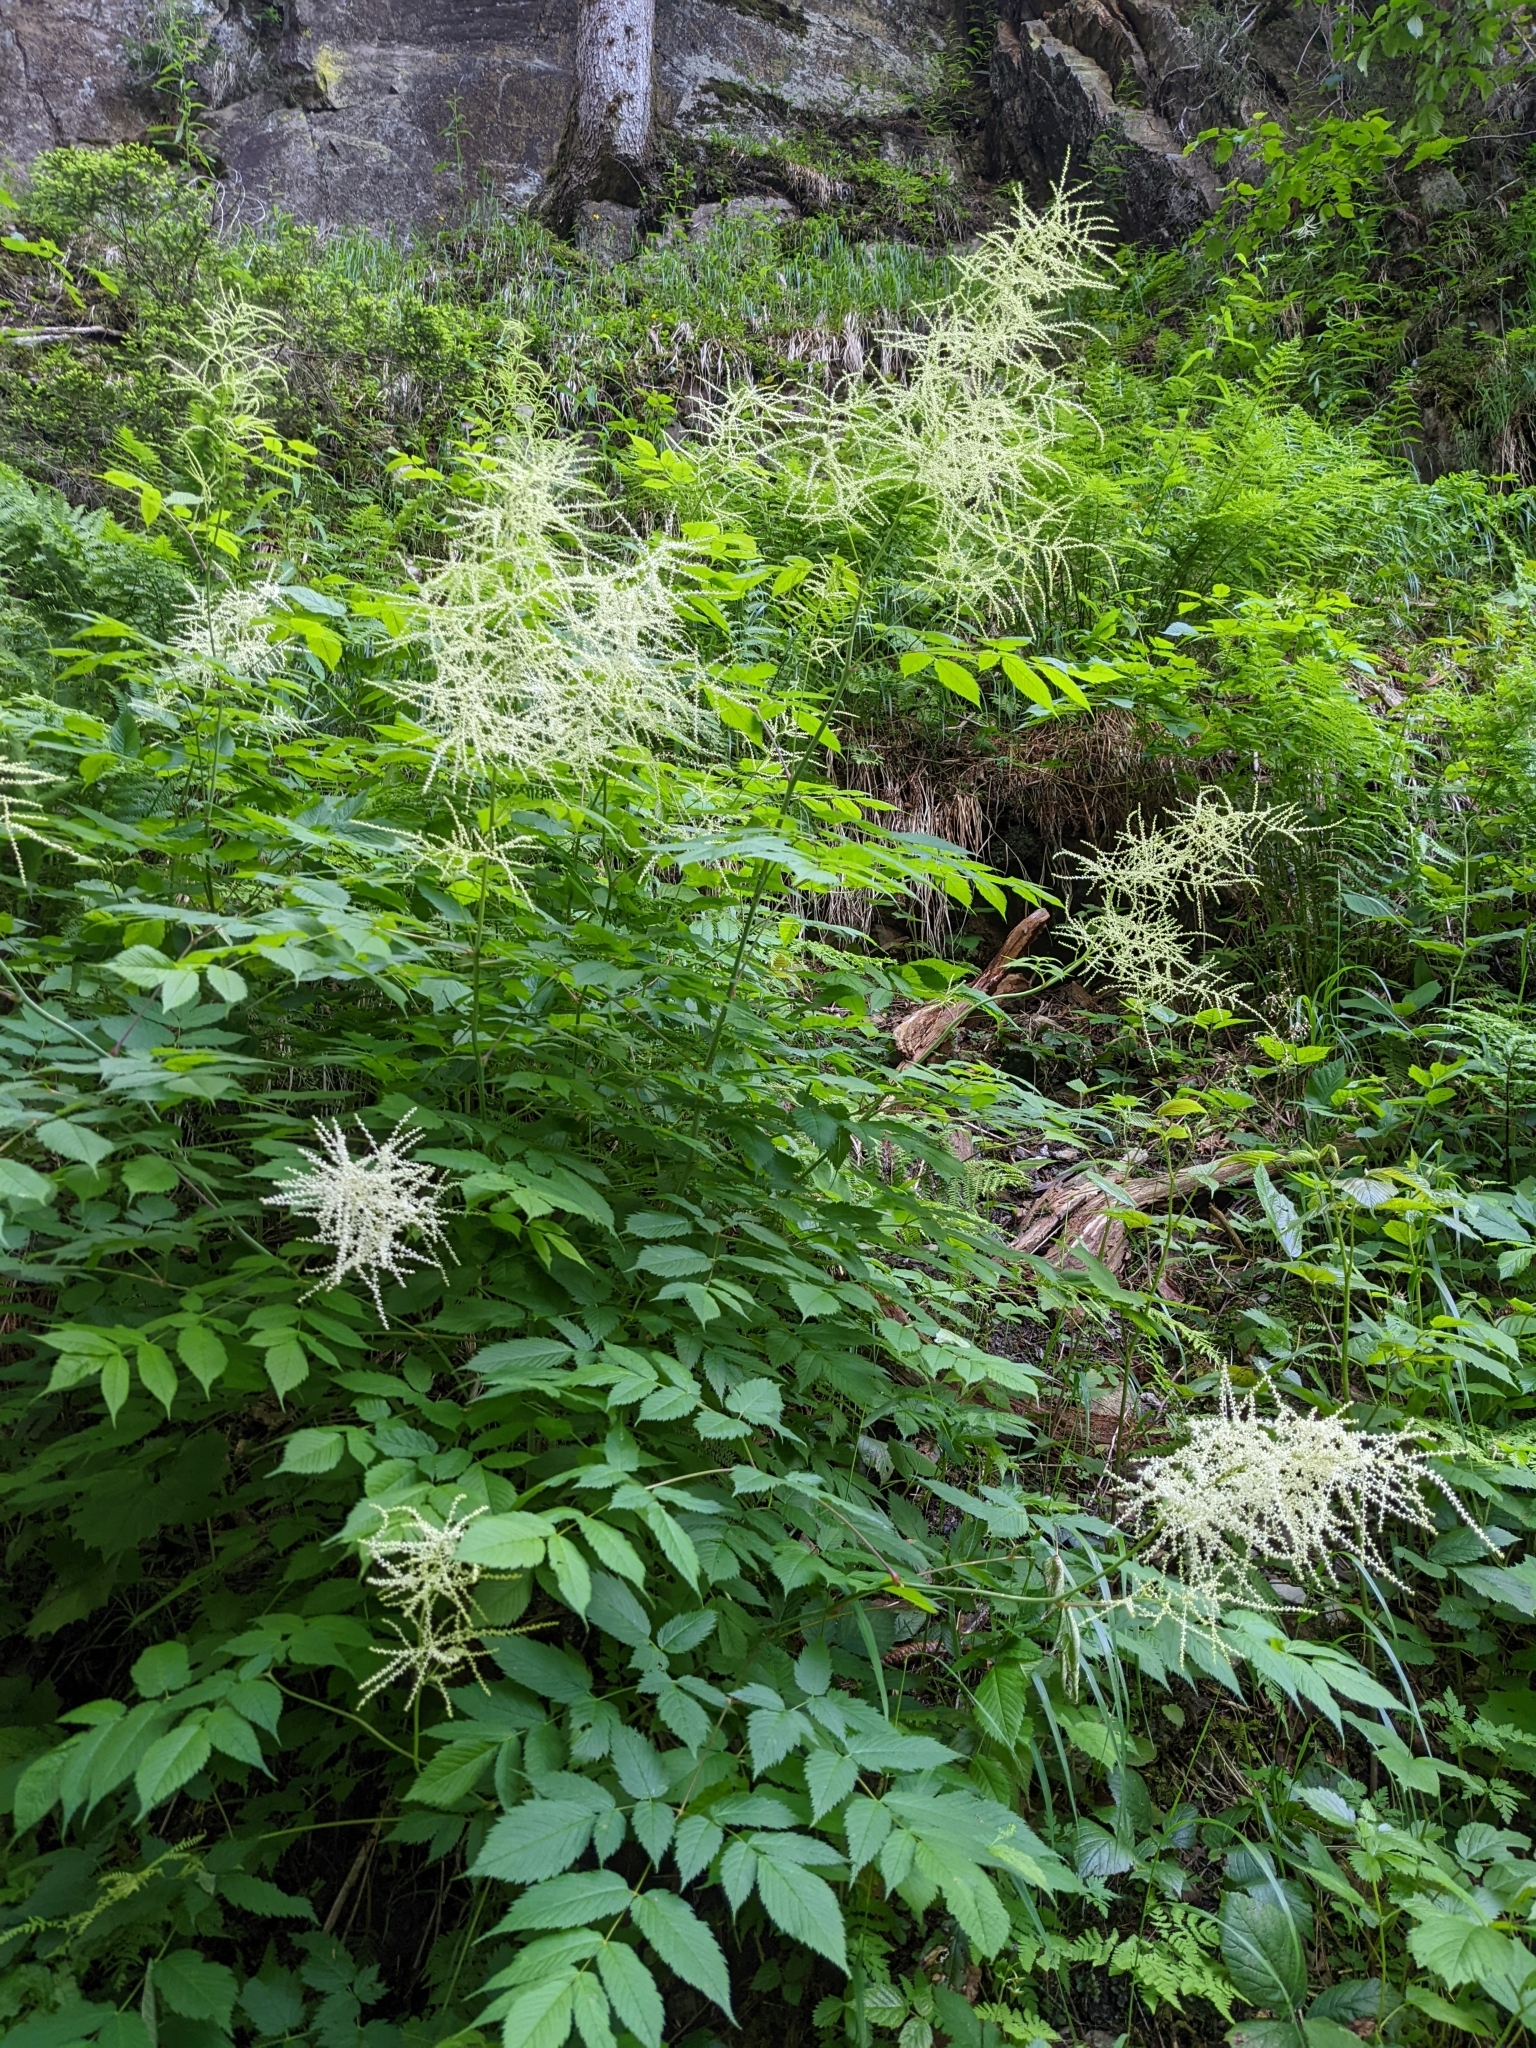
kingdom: Plantae
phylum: Tracheophyta
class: Magnoliopsida
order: Rosales
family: Rosaceae
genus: Aruncus
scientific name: Aruncus dioicus
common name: Buck's-beard
